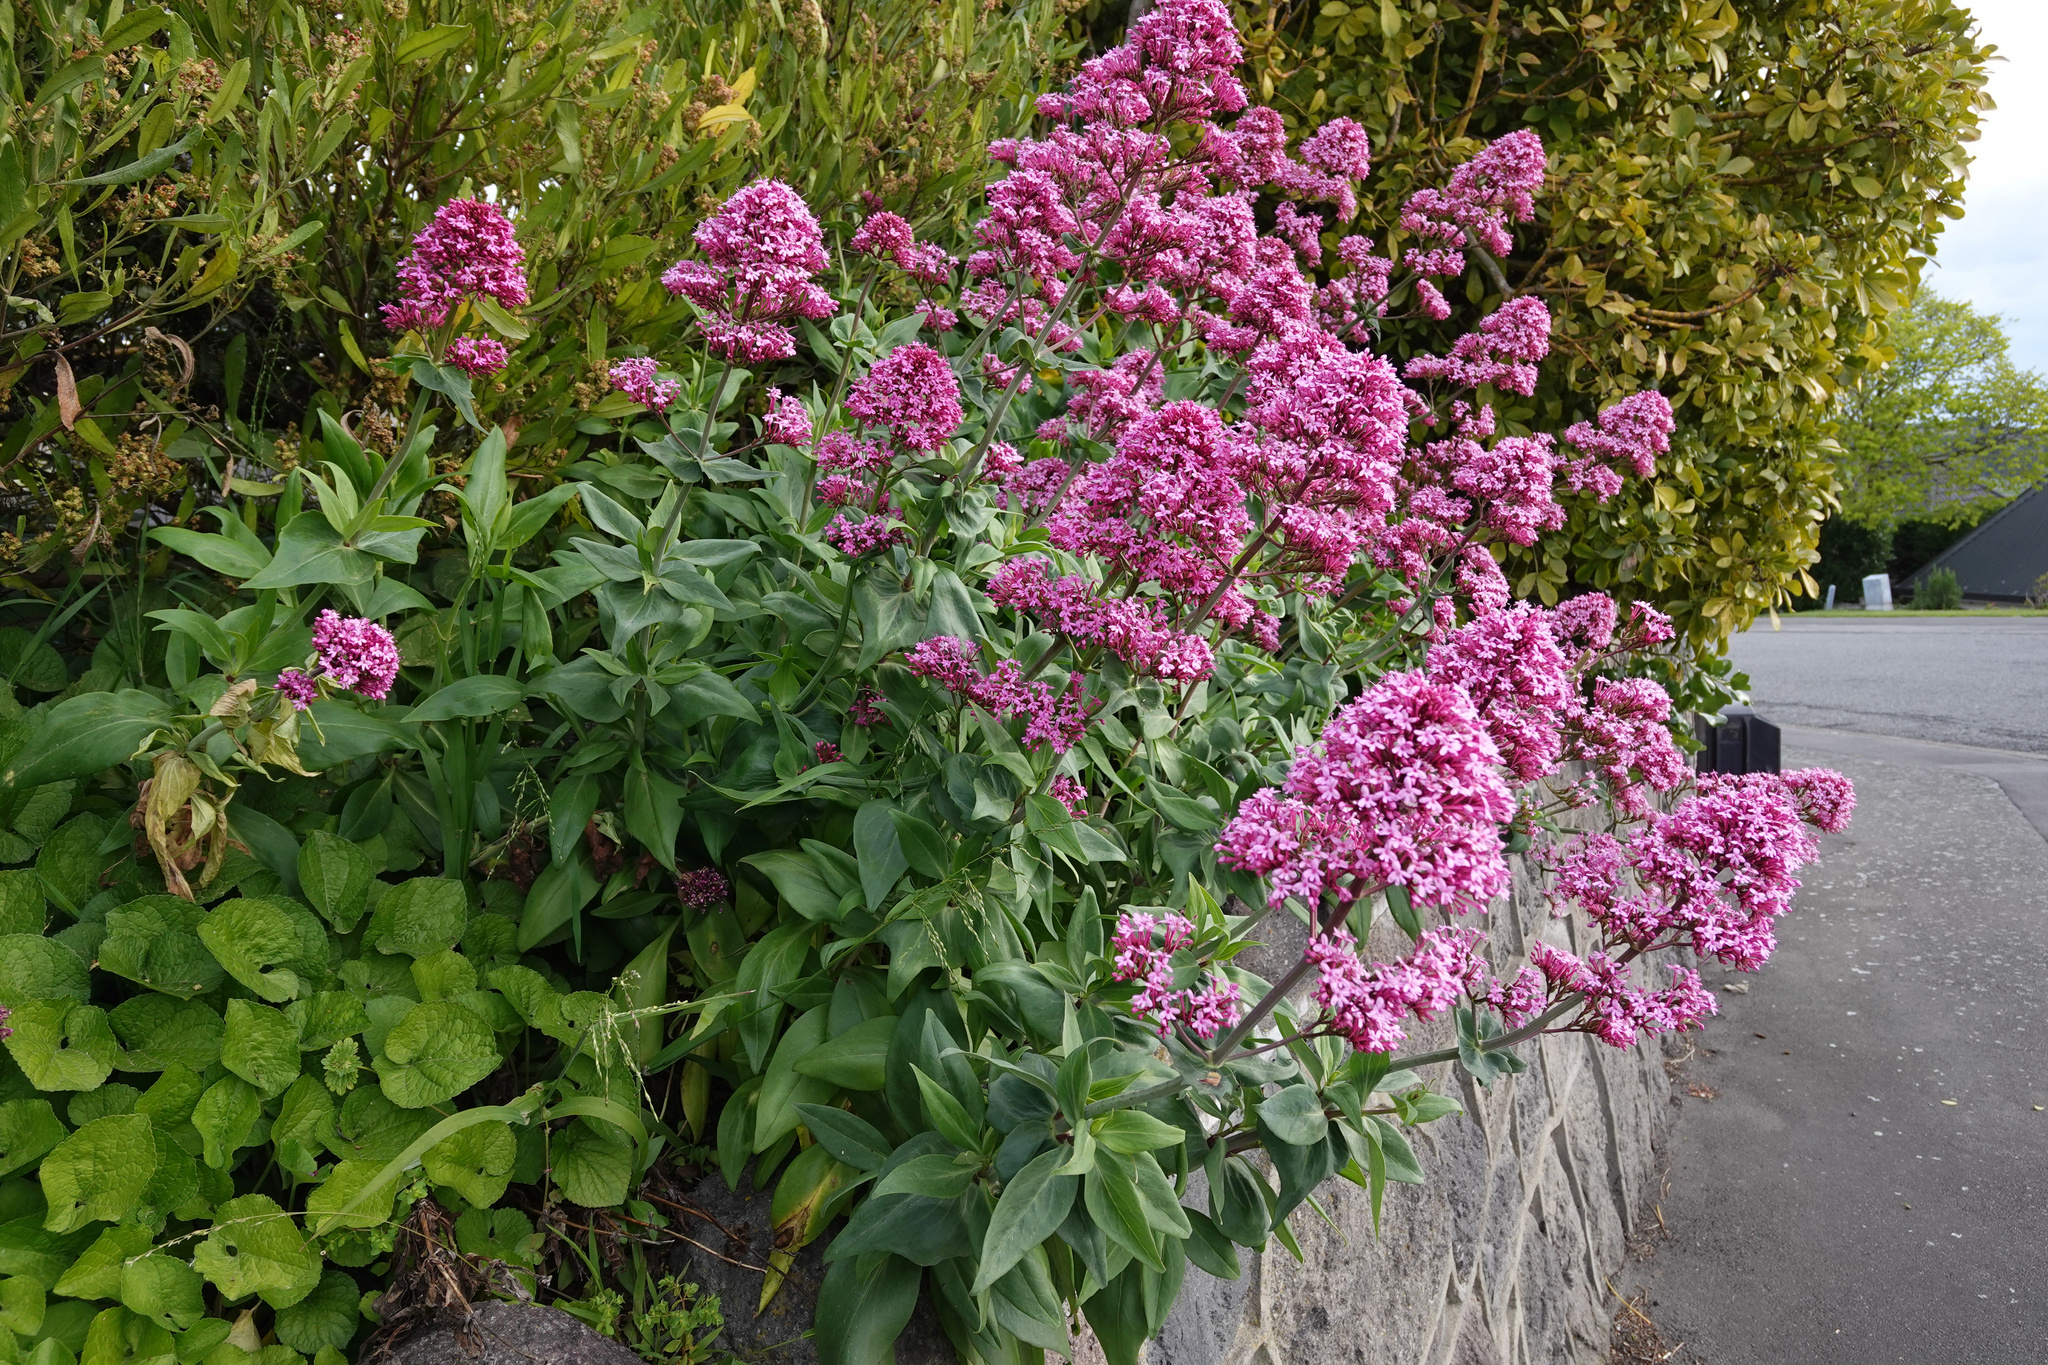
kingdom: Plantae
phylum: Tracheophyta
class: Magnoliopsida
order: Dipsacales
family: Caprifoliaceae
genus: Centranthus
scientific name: Centranthus ruber
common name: Red valerian
